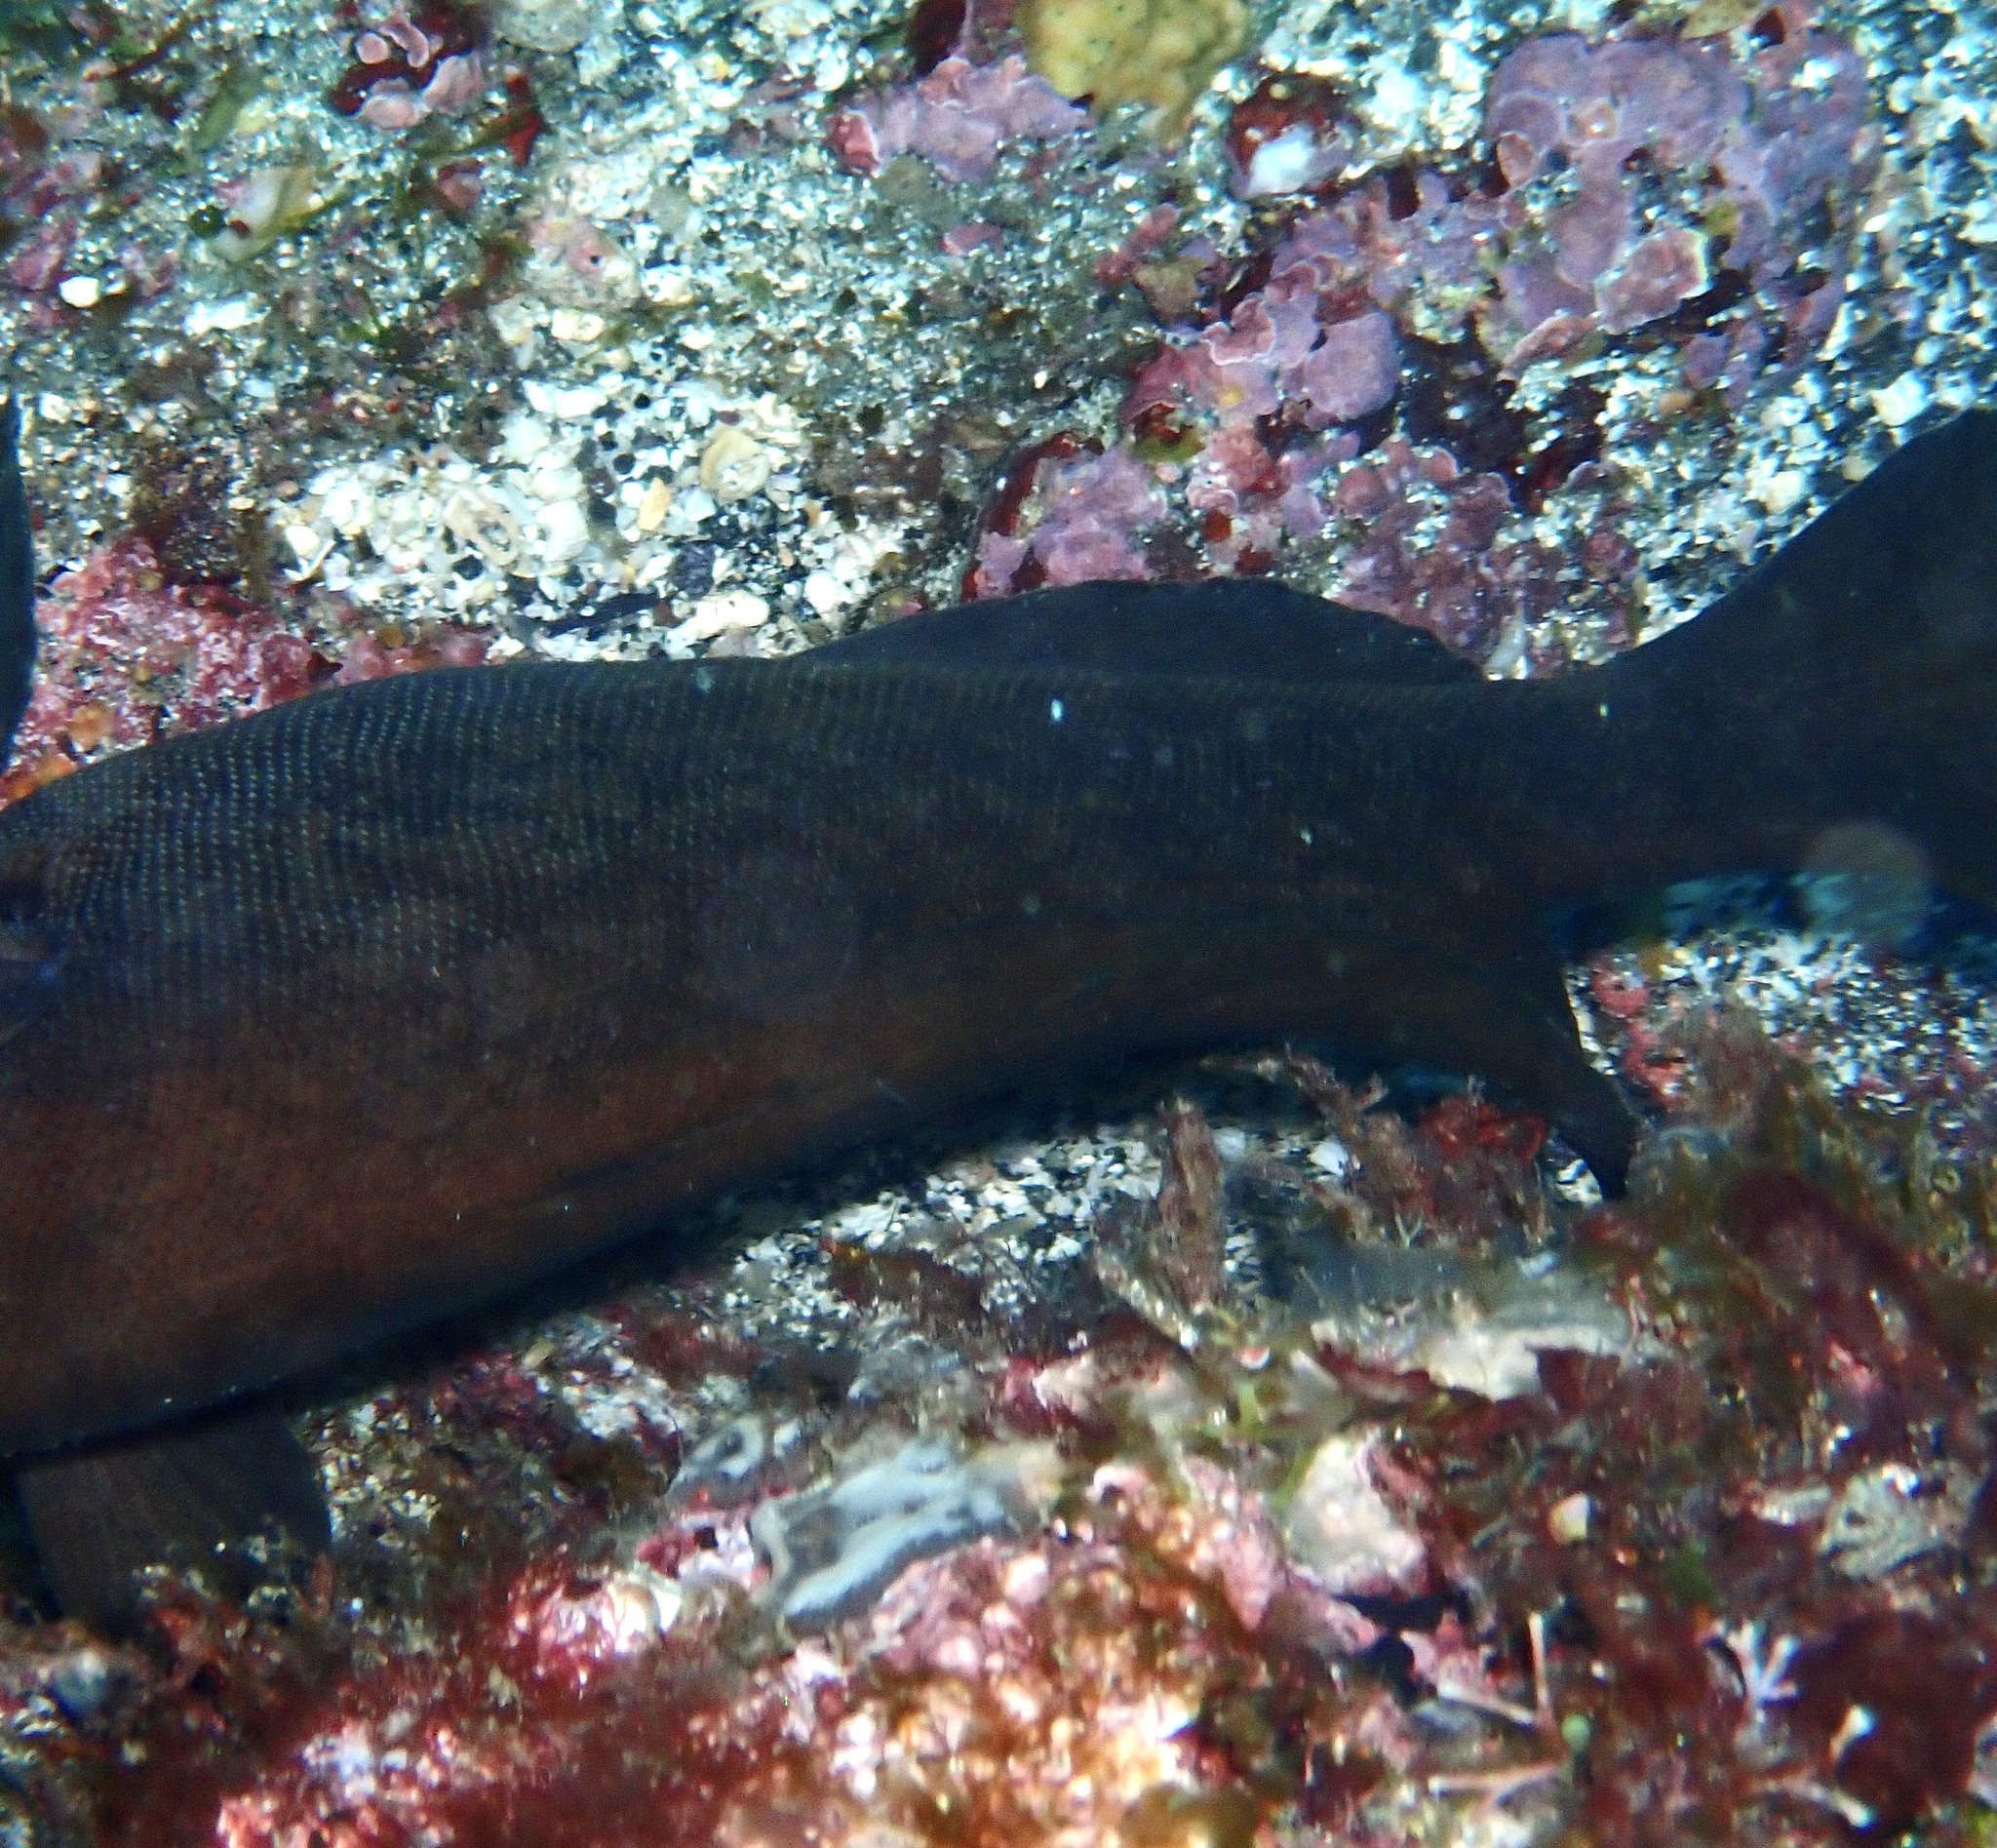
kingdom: Animalia
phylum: Chordata
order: Perciformes
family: Serranidae
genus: Rypticus
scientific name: Rypticus saponaceus
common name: Soapfish
